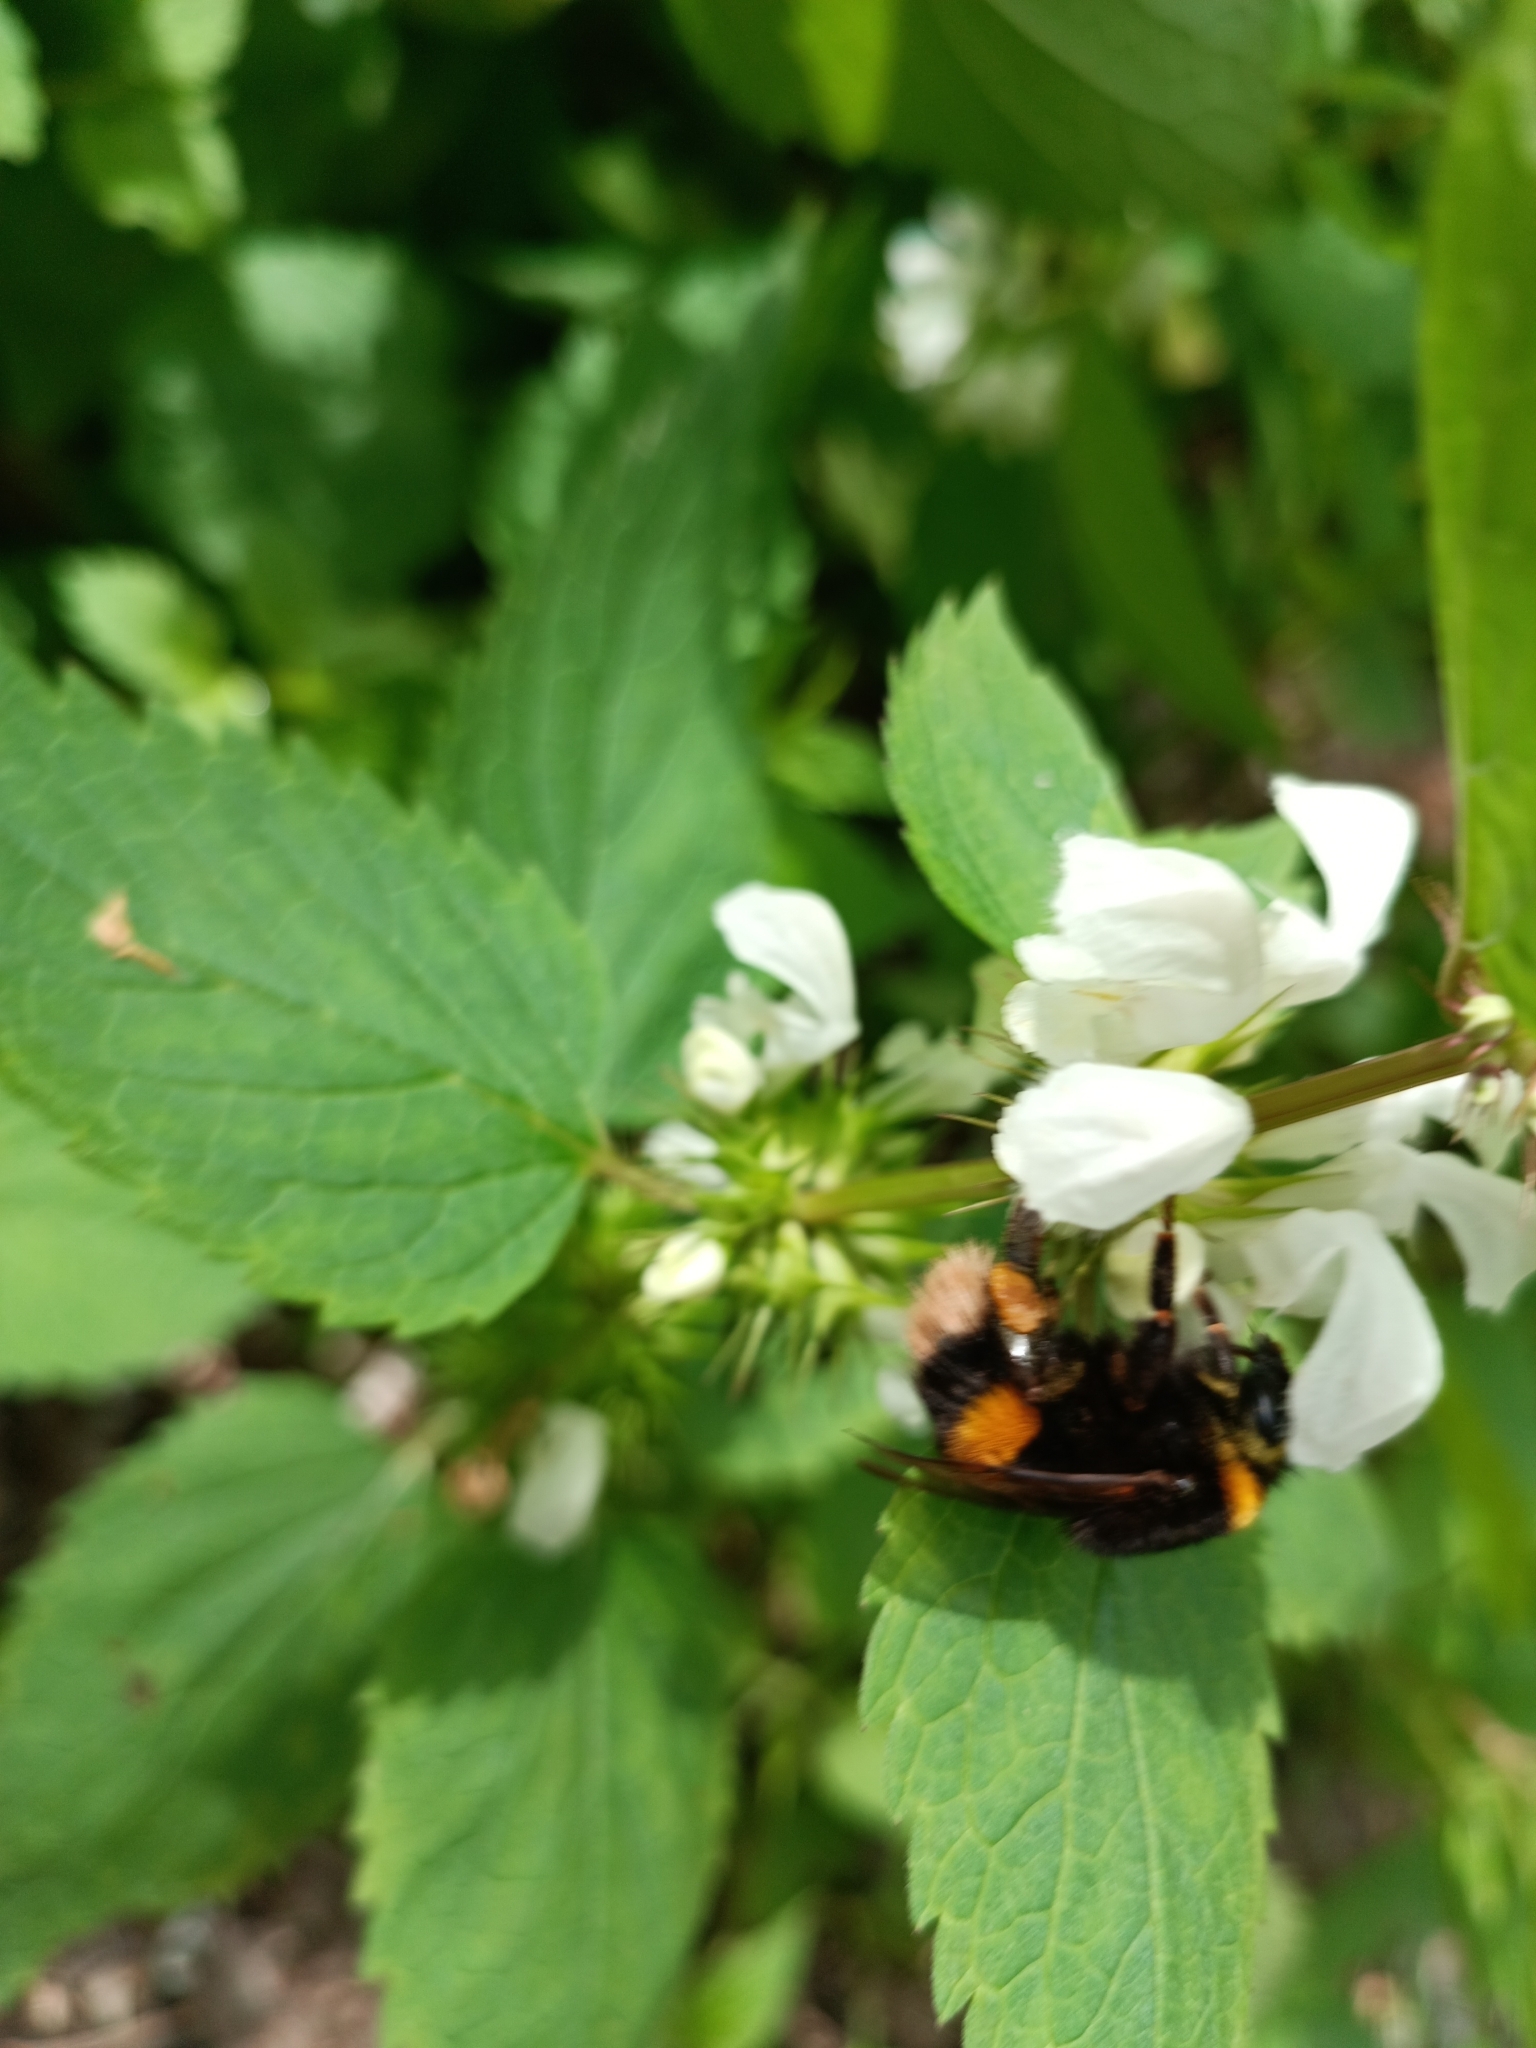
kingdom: Animalia
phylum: Arthropoda
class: Insecta
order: Hymenoptera
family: Apidae
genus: Bombus
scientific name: Bombus
